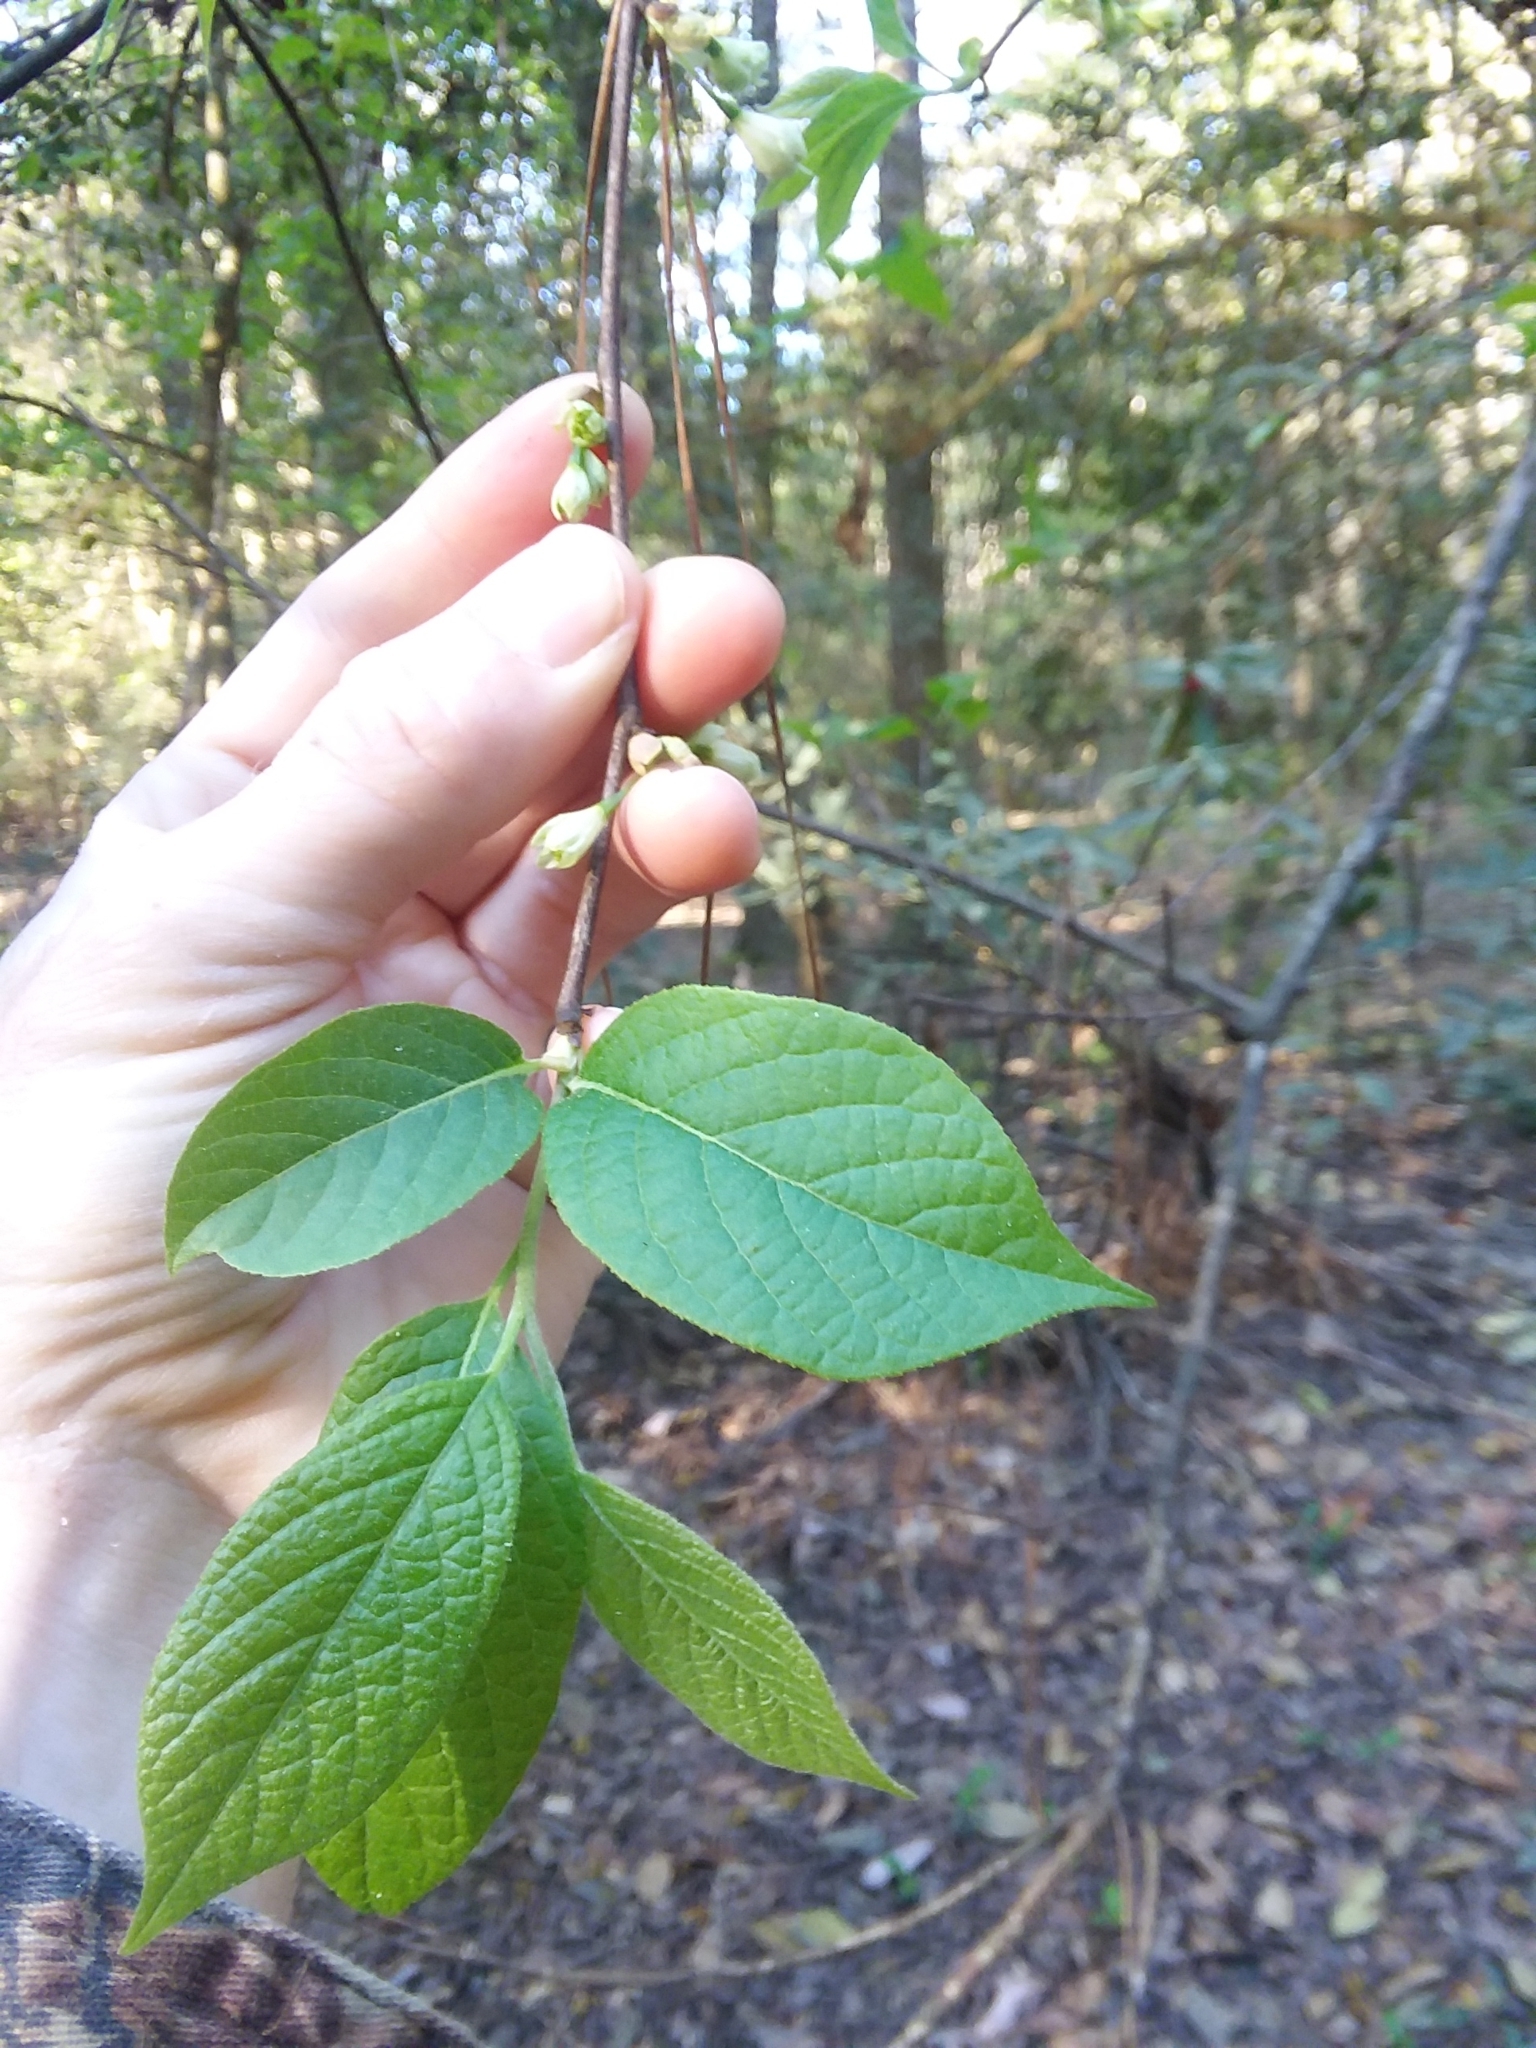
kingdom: Plantae
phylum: Tracheophyta
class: Magnoliopsida
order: Ericales
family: Styracaceae
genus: Halesia
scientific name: Halesia carolina
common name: Carolina silverbell
